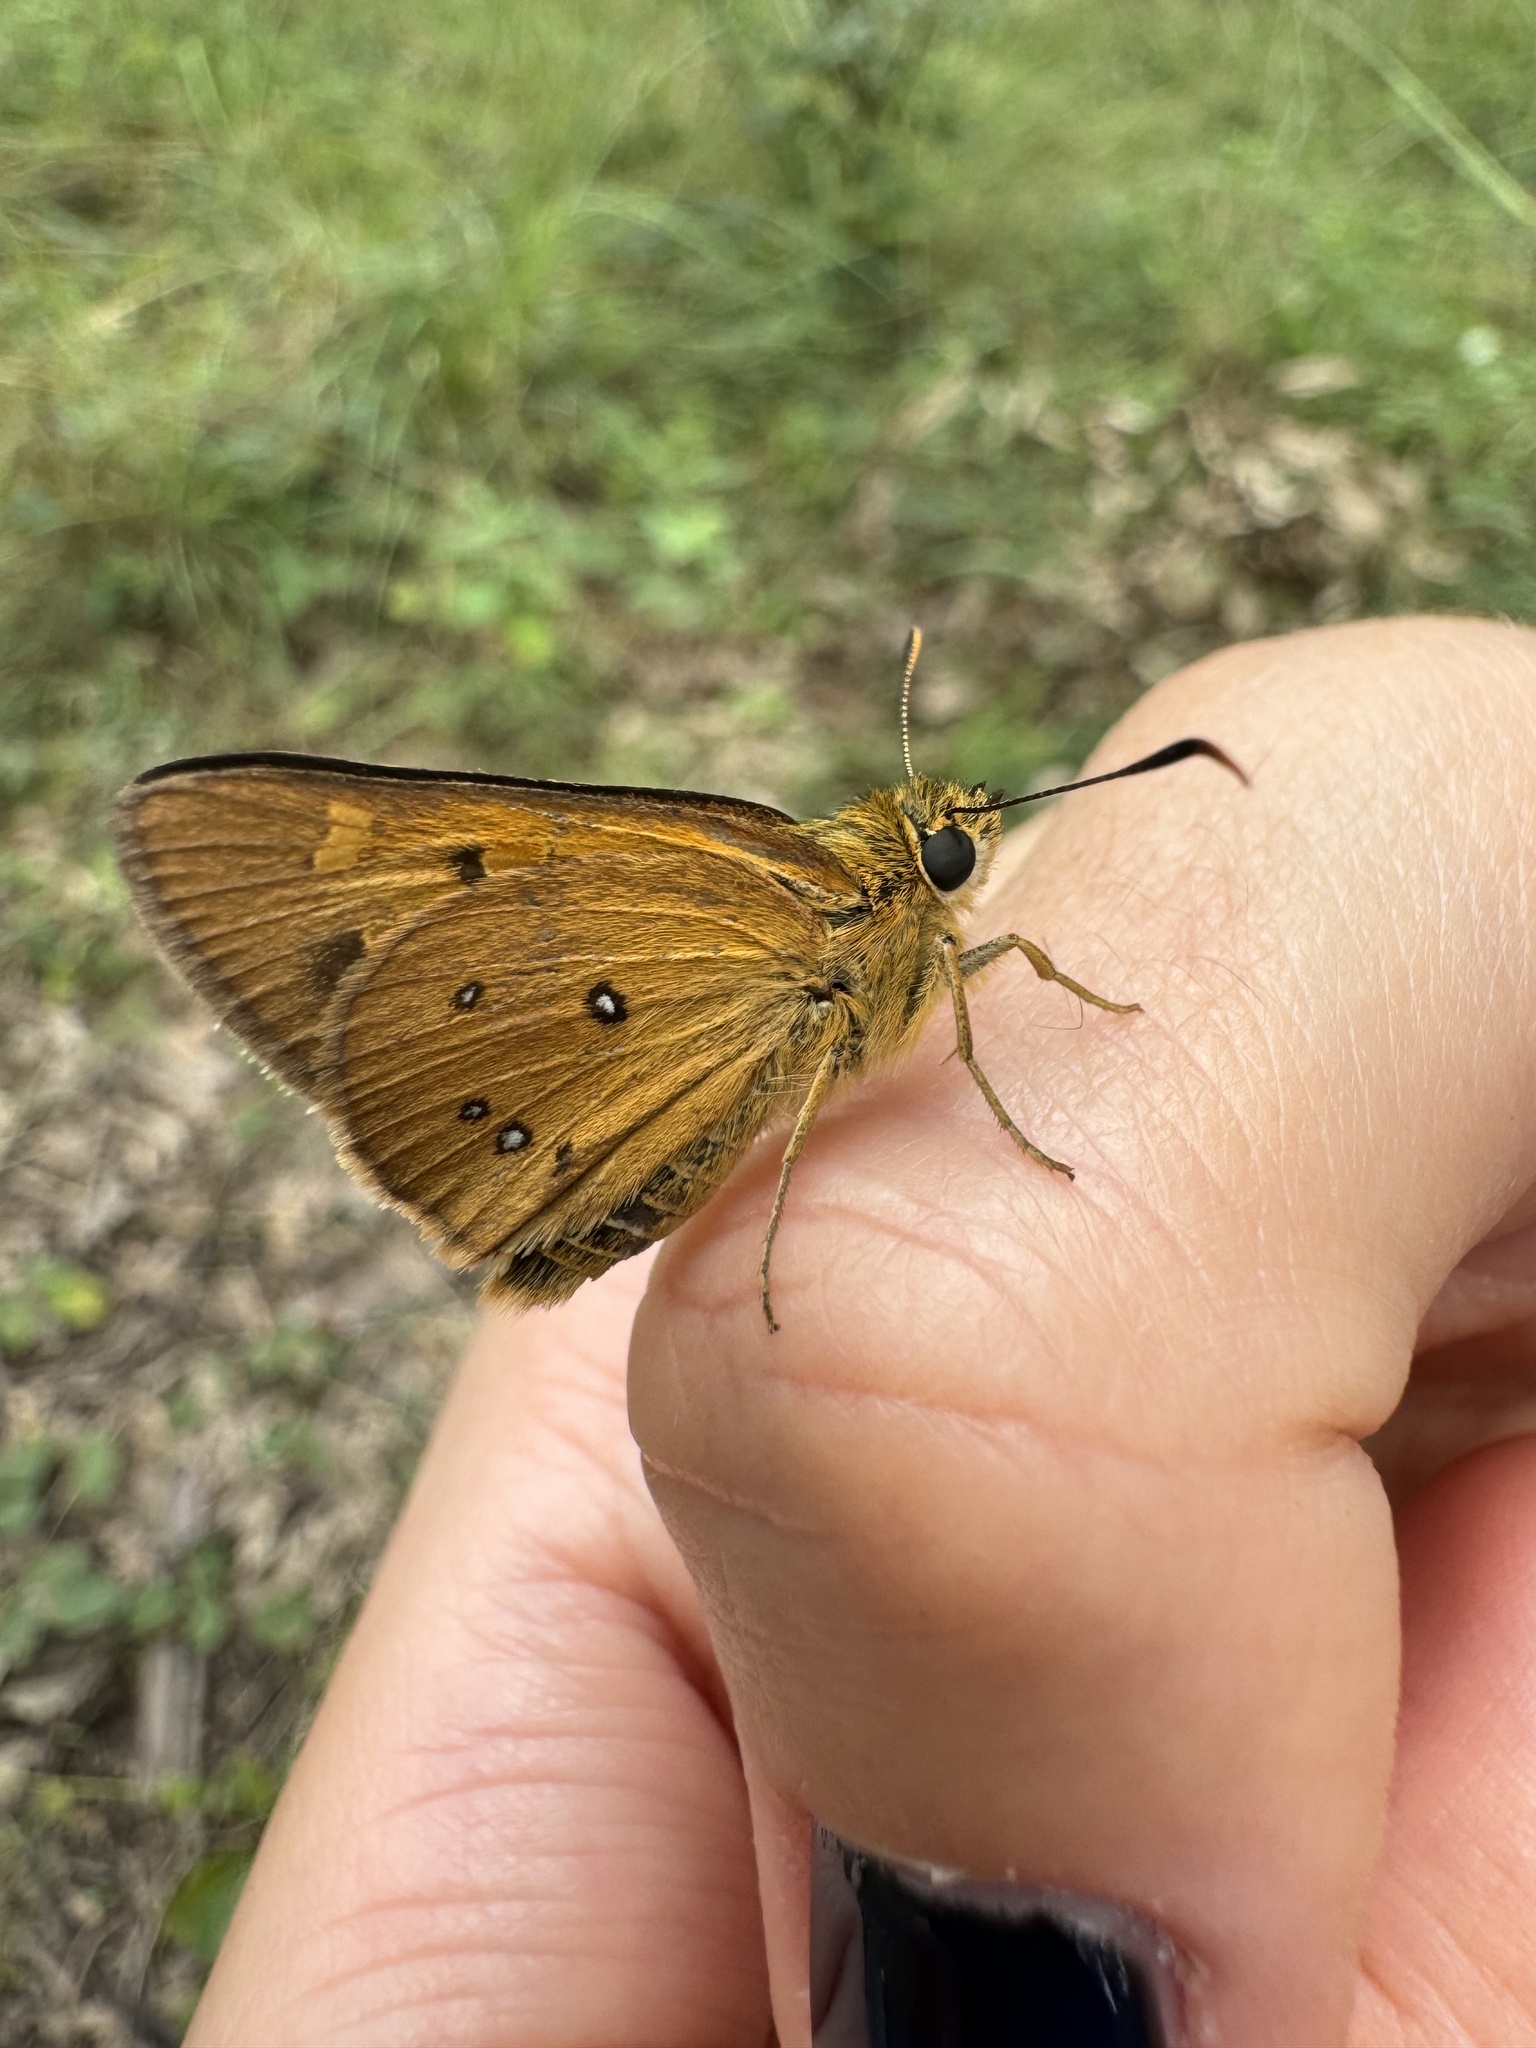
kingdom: Animalia
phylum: Arthropoda
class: Insecta
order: Lepidoptera
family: Hesperiidae
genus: Trapezites
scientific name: Trapezites eliena
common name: Eliena skipper
